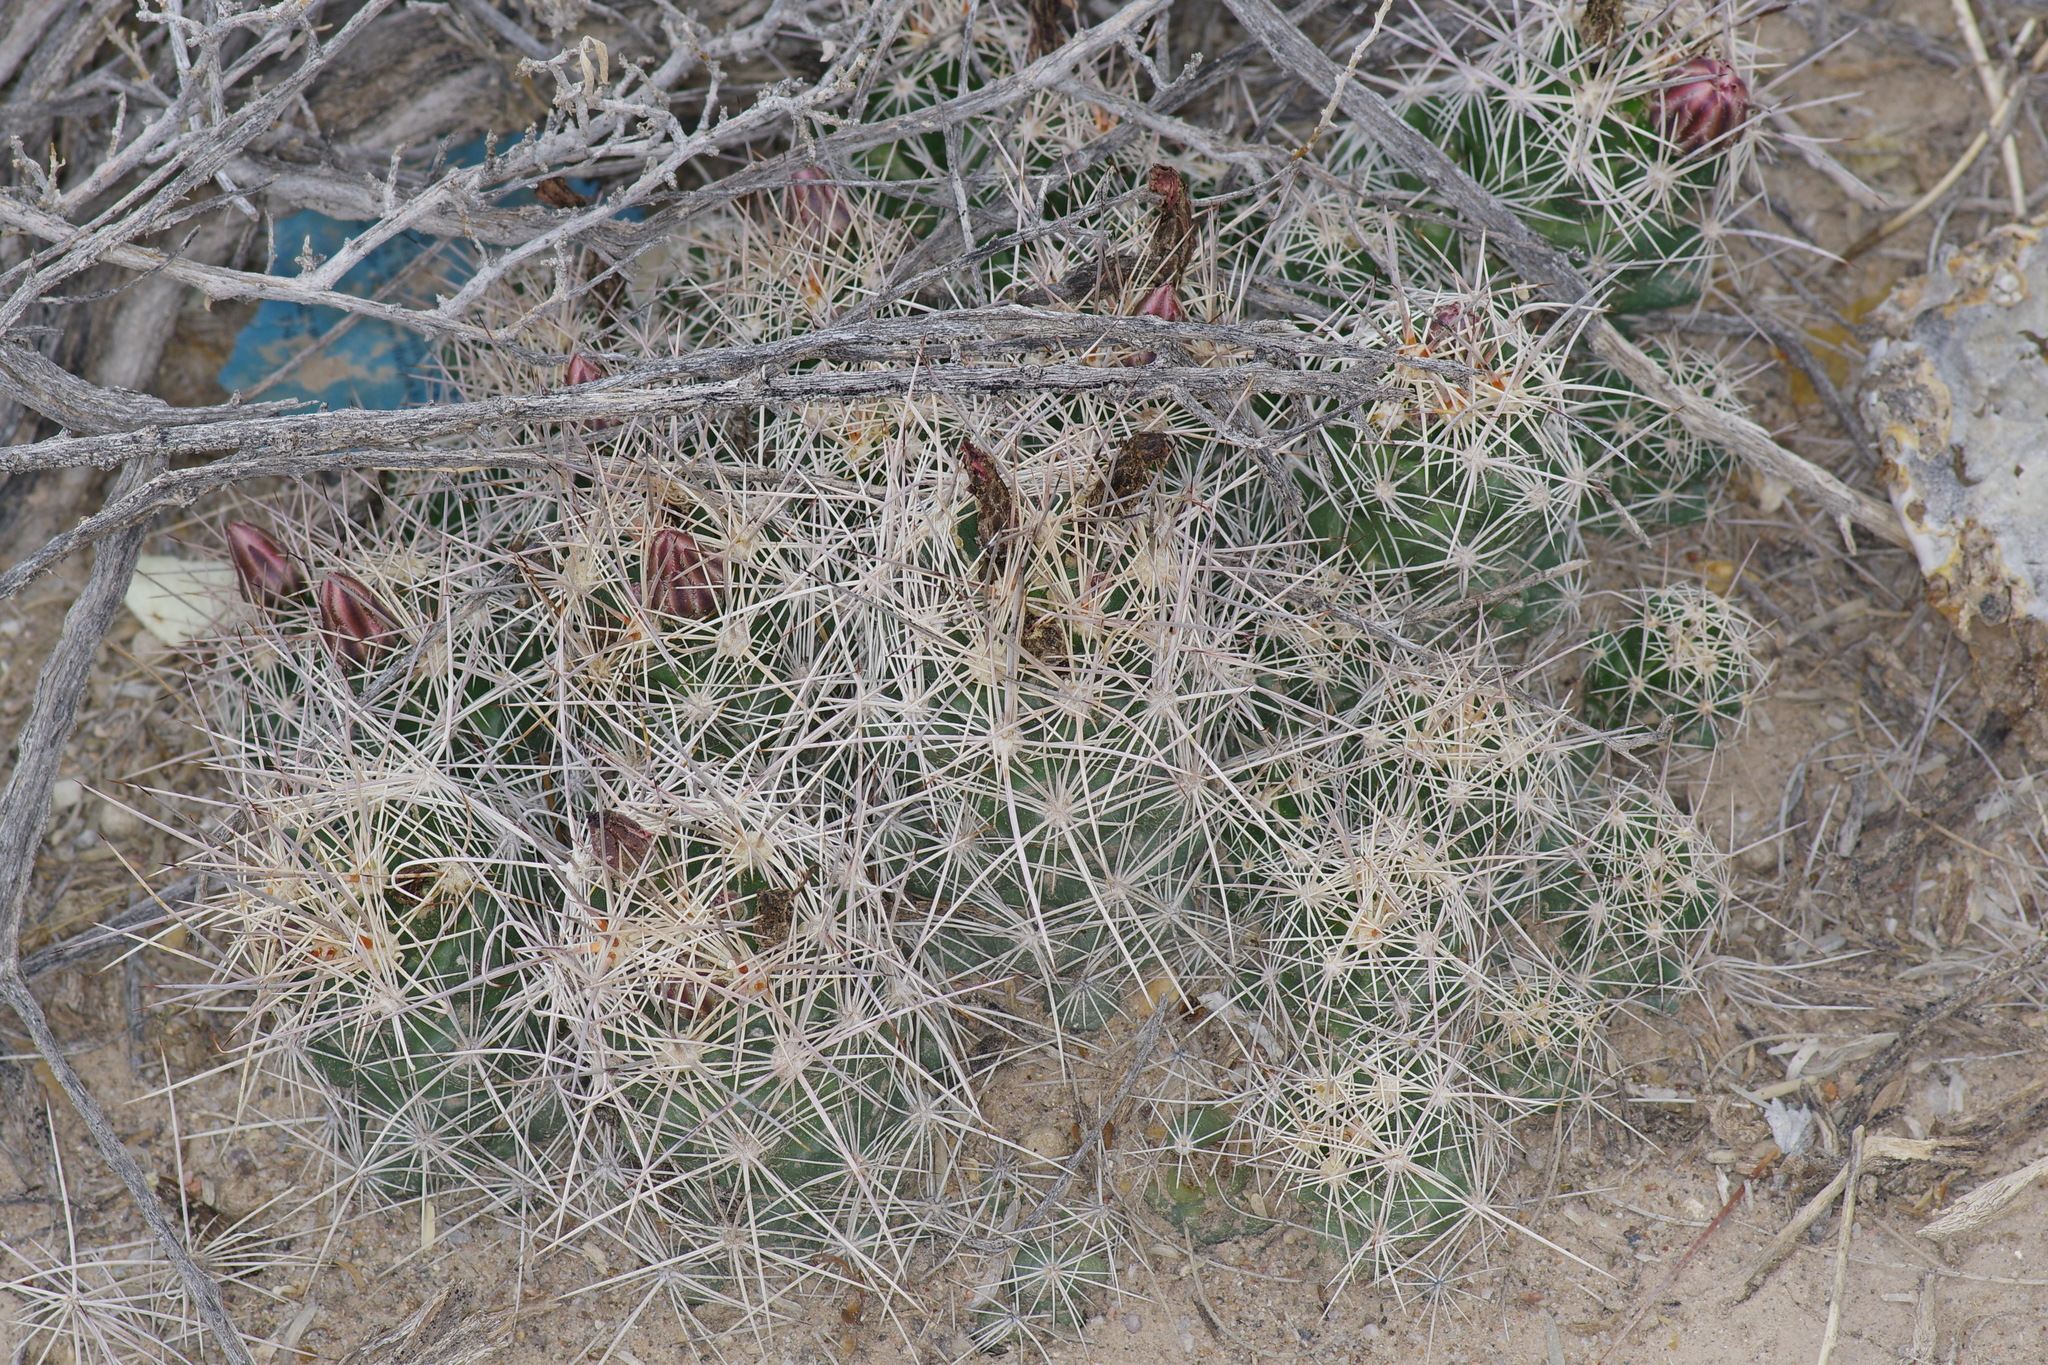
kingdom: Plantae
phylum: Tracheophyta
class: Magnoliopsida
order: Caryophyllales
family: Cactaceae
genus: Coryphantha
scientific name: Coryphantha macromeris
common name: Nipple beehive cactus
